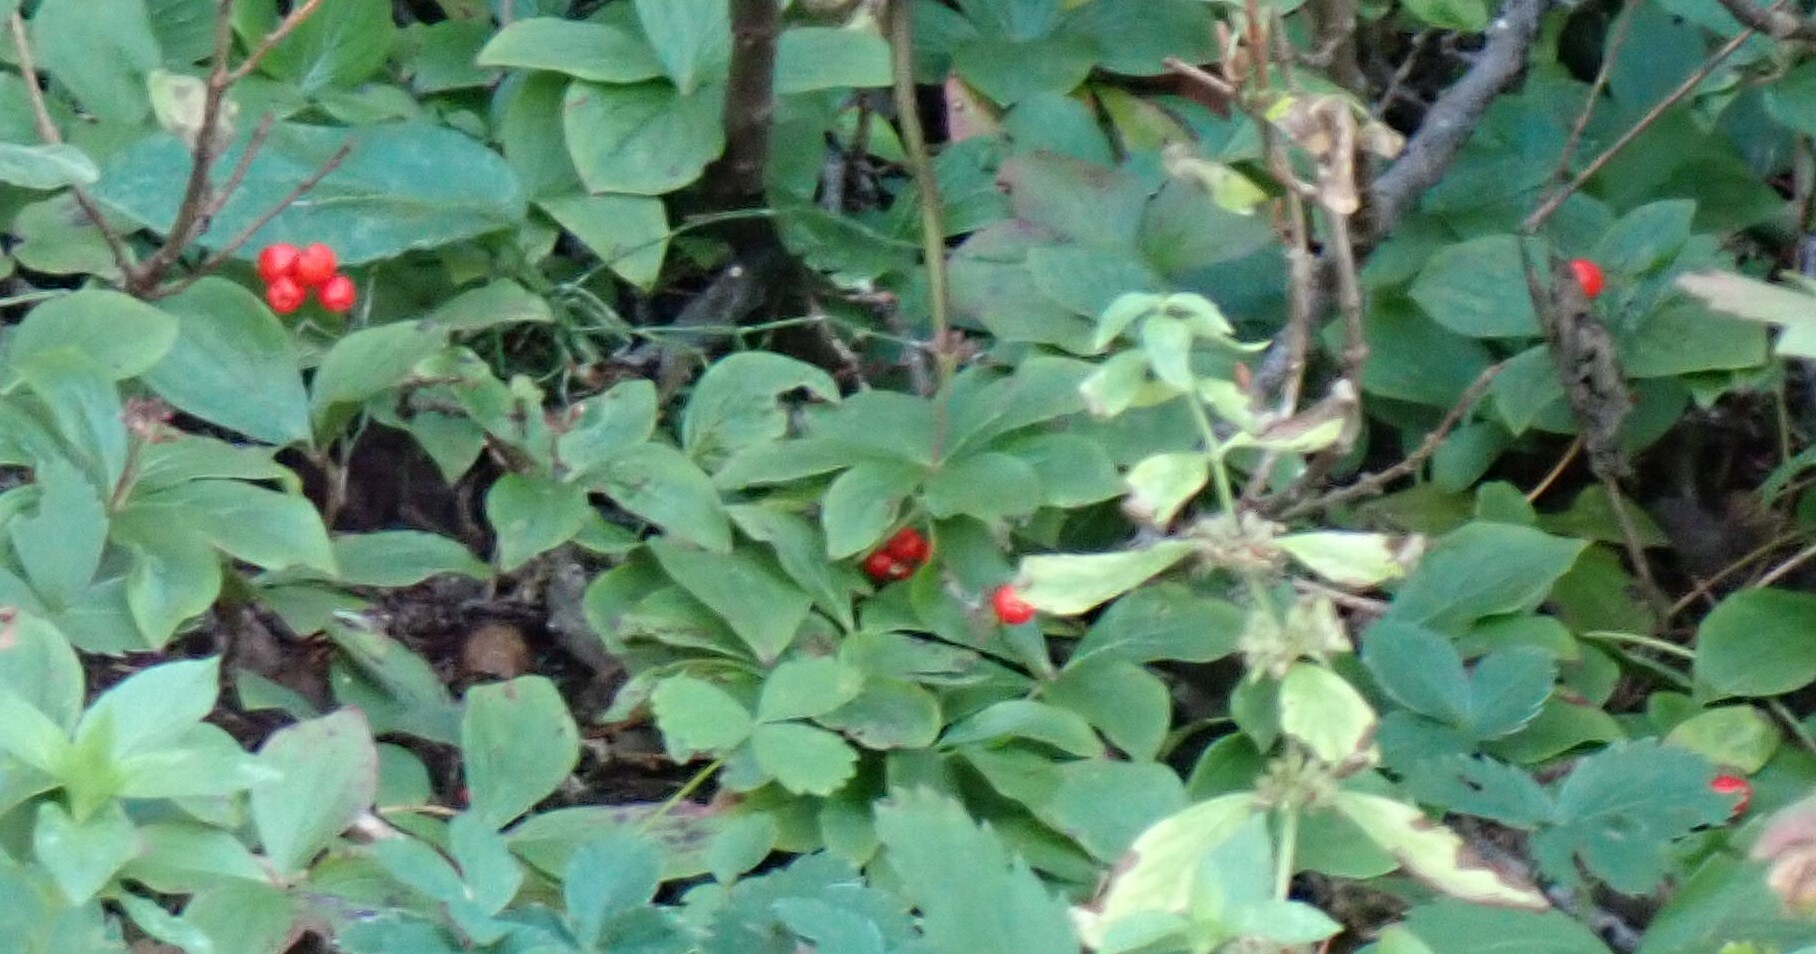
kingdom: Plantae
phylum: Tracheophyta
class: Magnoliopsida
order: Cornales
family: Cornaceae
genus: Cornus
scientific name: Cornus canadensis
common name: Creeping dogwood
